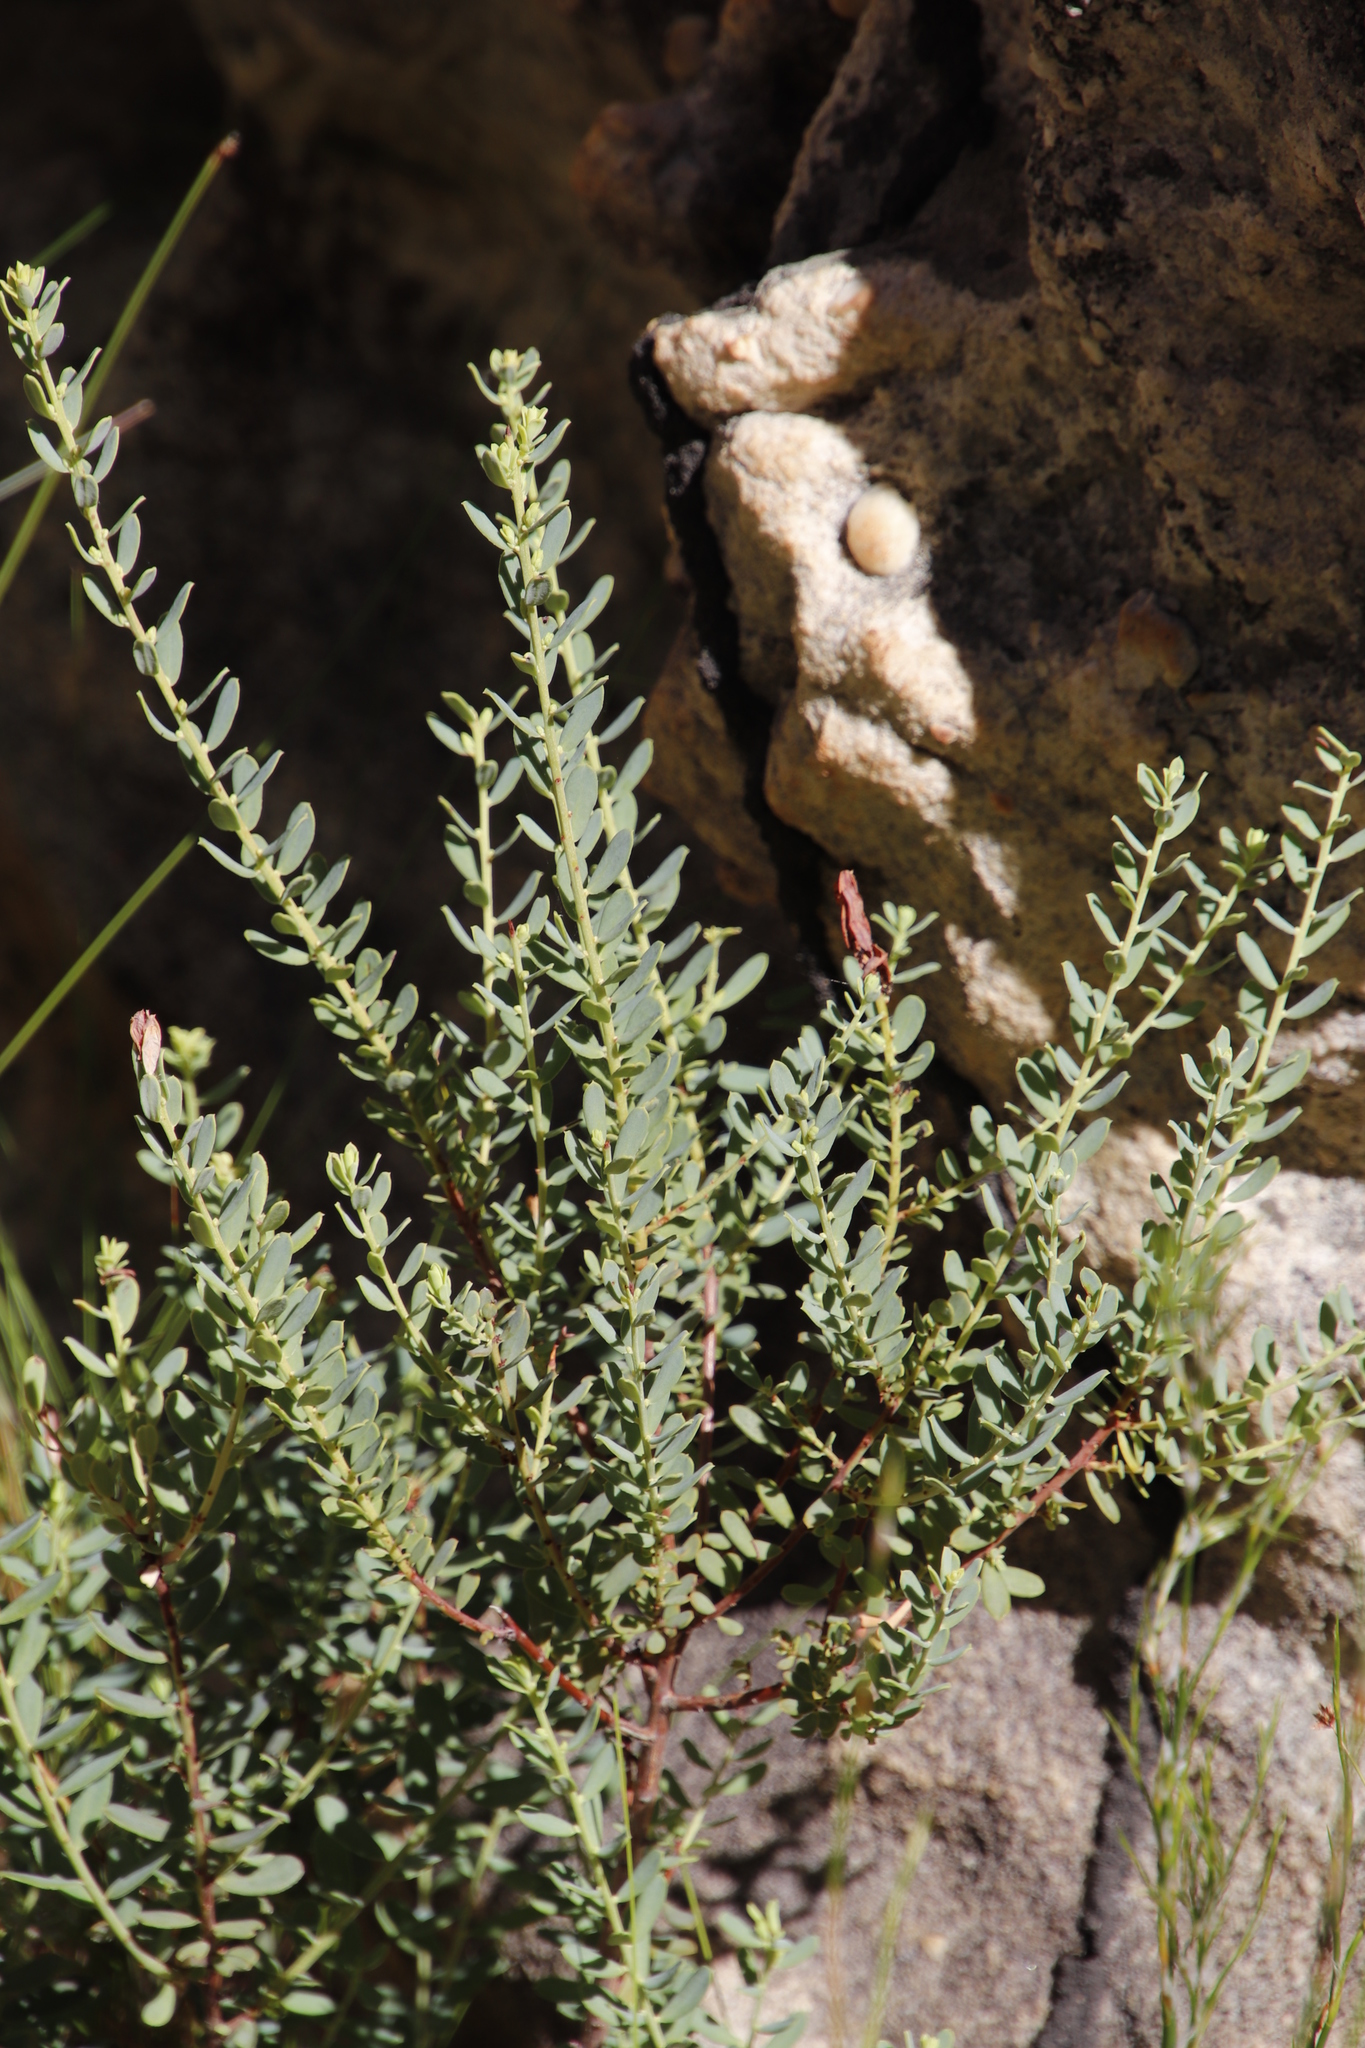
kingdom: Plantae
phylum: Tracheophyta
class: Magnoliopsida
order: Malpighiales
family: Peraceae
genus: Clutia
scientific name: Clutia alaternoides
